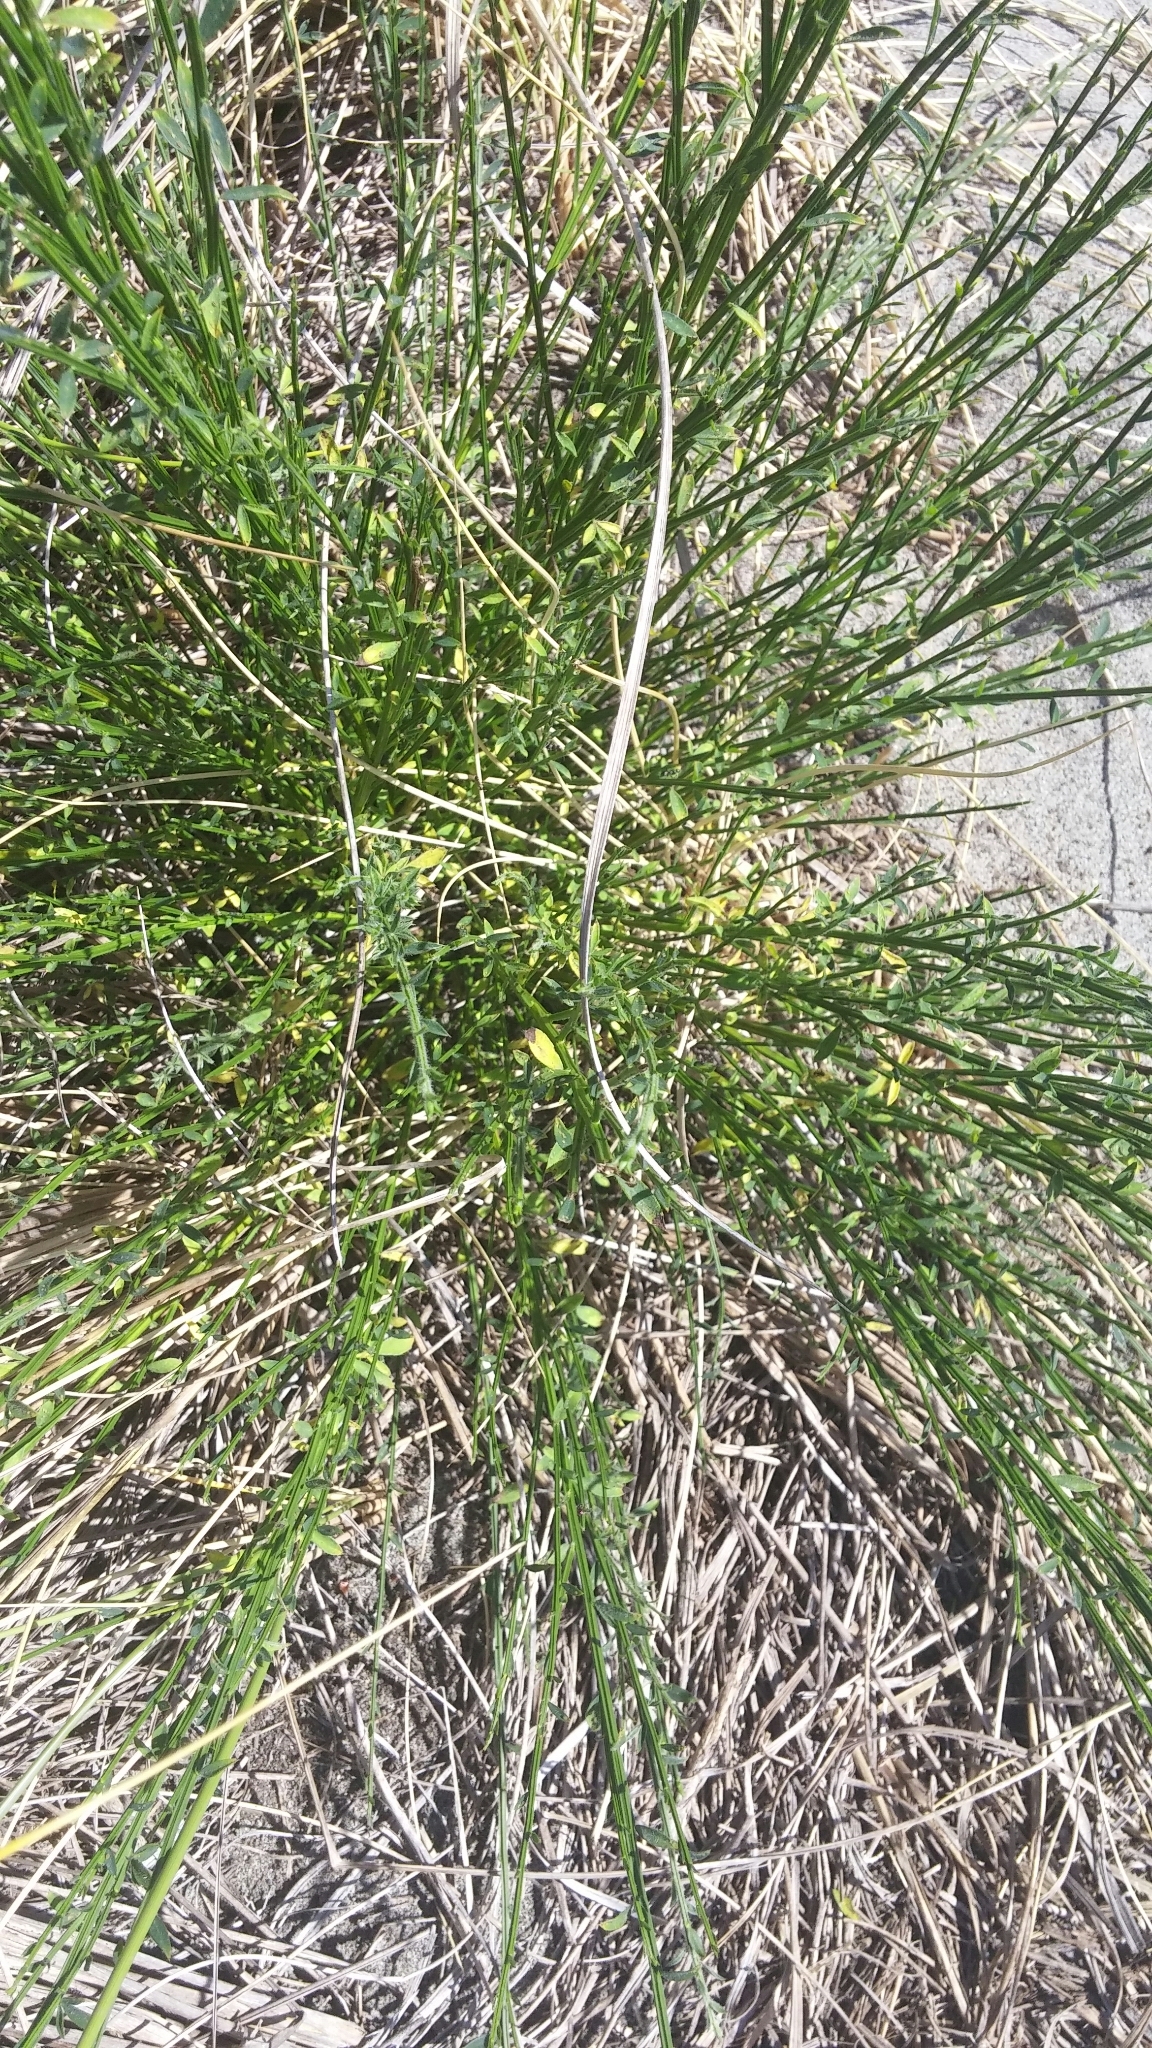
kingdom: Plantae
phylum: Tracheophyta
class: Magnoliopsida
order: Fabales
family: Fabaceae
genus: Cytisus
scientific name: Cytisus scoparius
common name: Scotch broom
